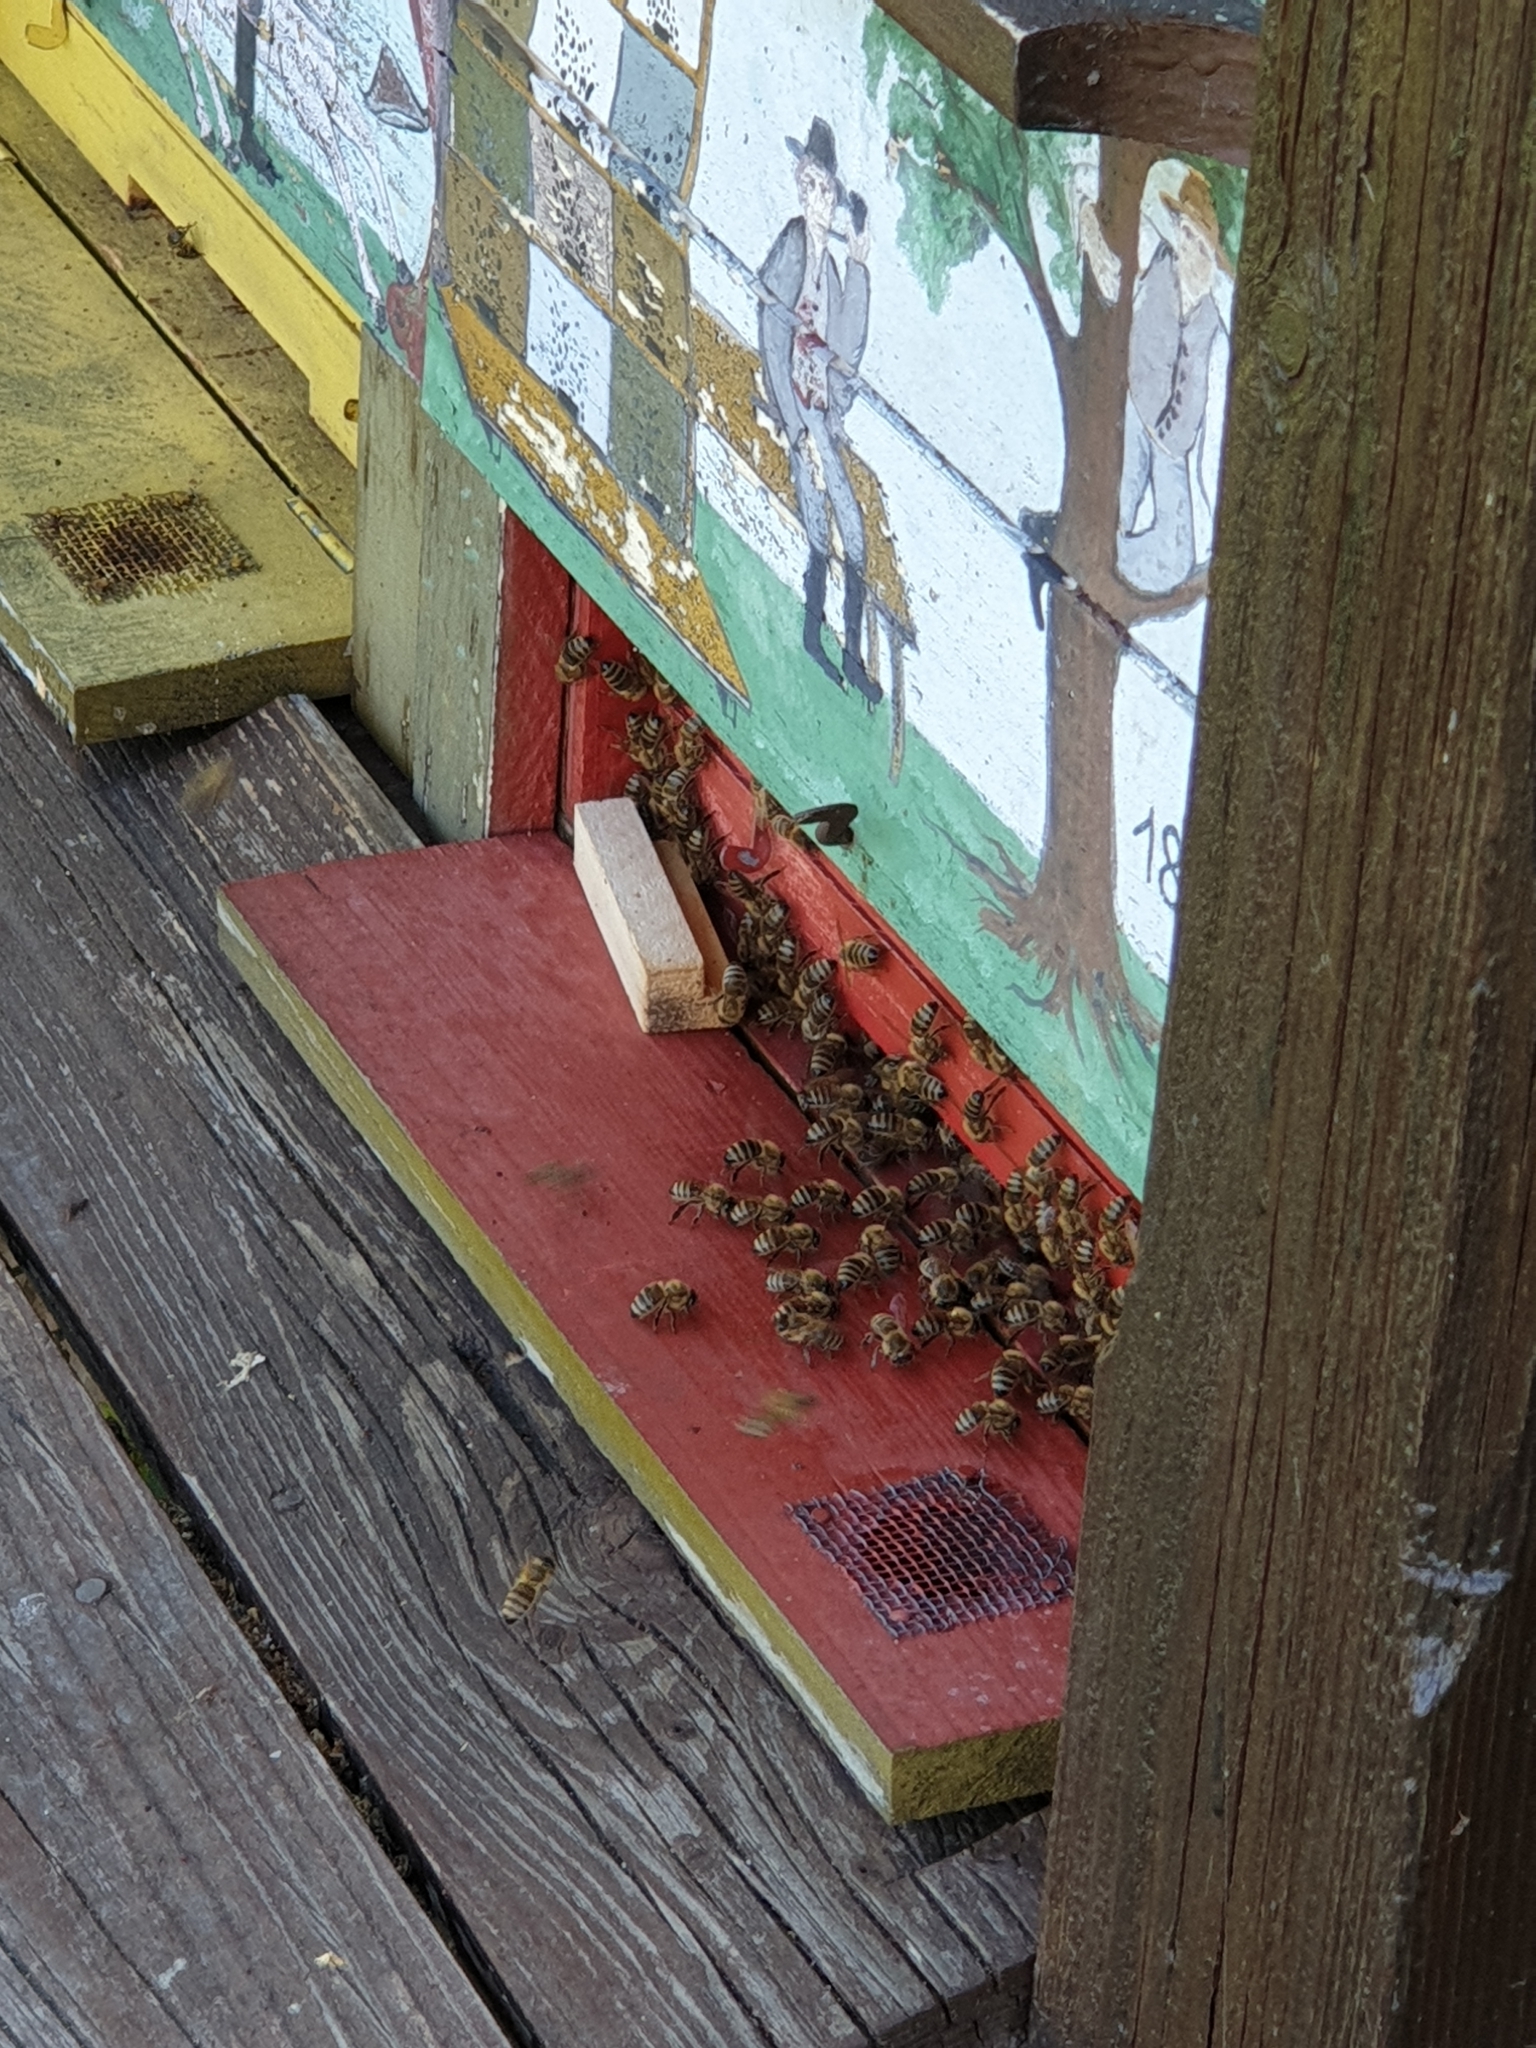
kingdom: Animalia
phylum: Arthropoda
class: Insecta
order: Hymenoptera
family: Apidae
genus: Apis
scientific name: Apis mellifera
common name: Honey bee
